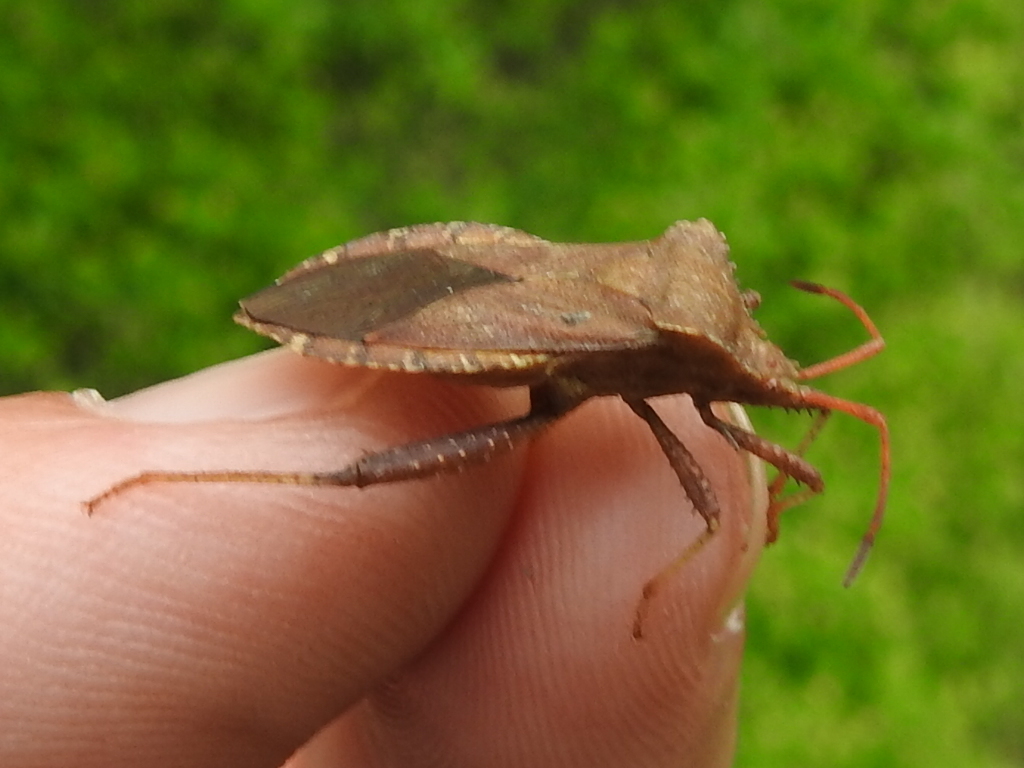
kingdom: Animalia
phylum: Arthropoda
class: Insecta
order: Hemiptera
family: Coreidae
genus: Euthochtha
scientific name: Euthochtha galeator
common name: Helmeted squash bug
